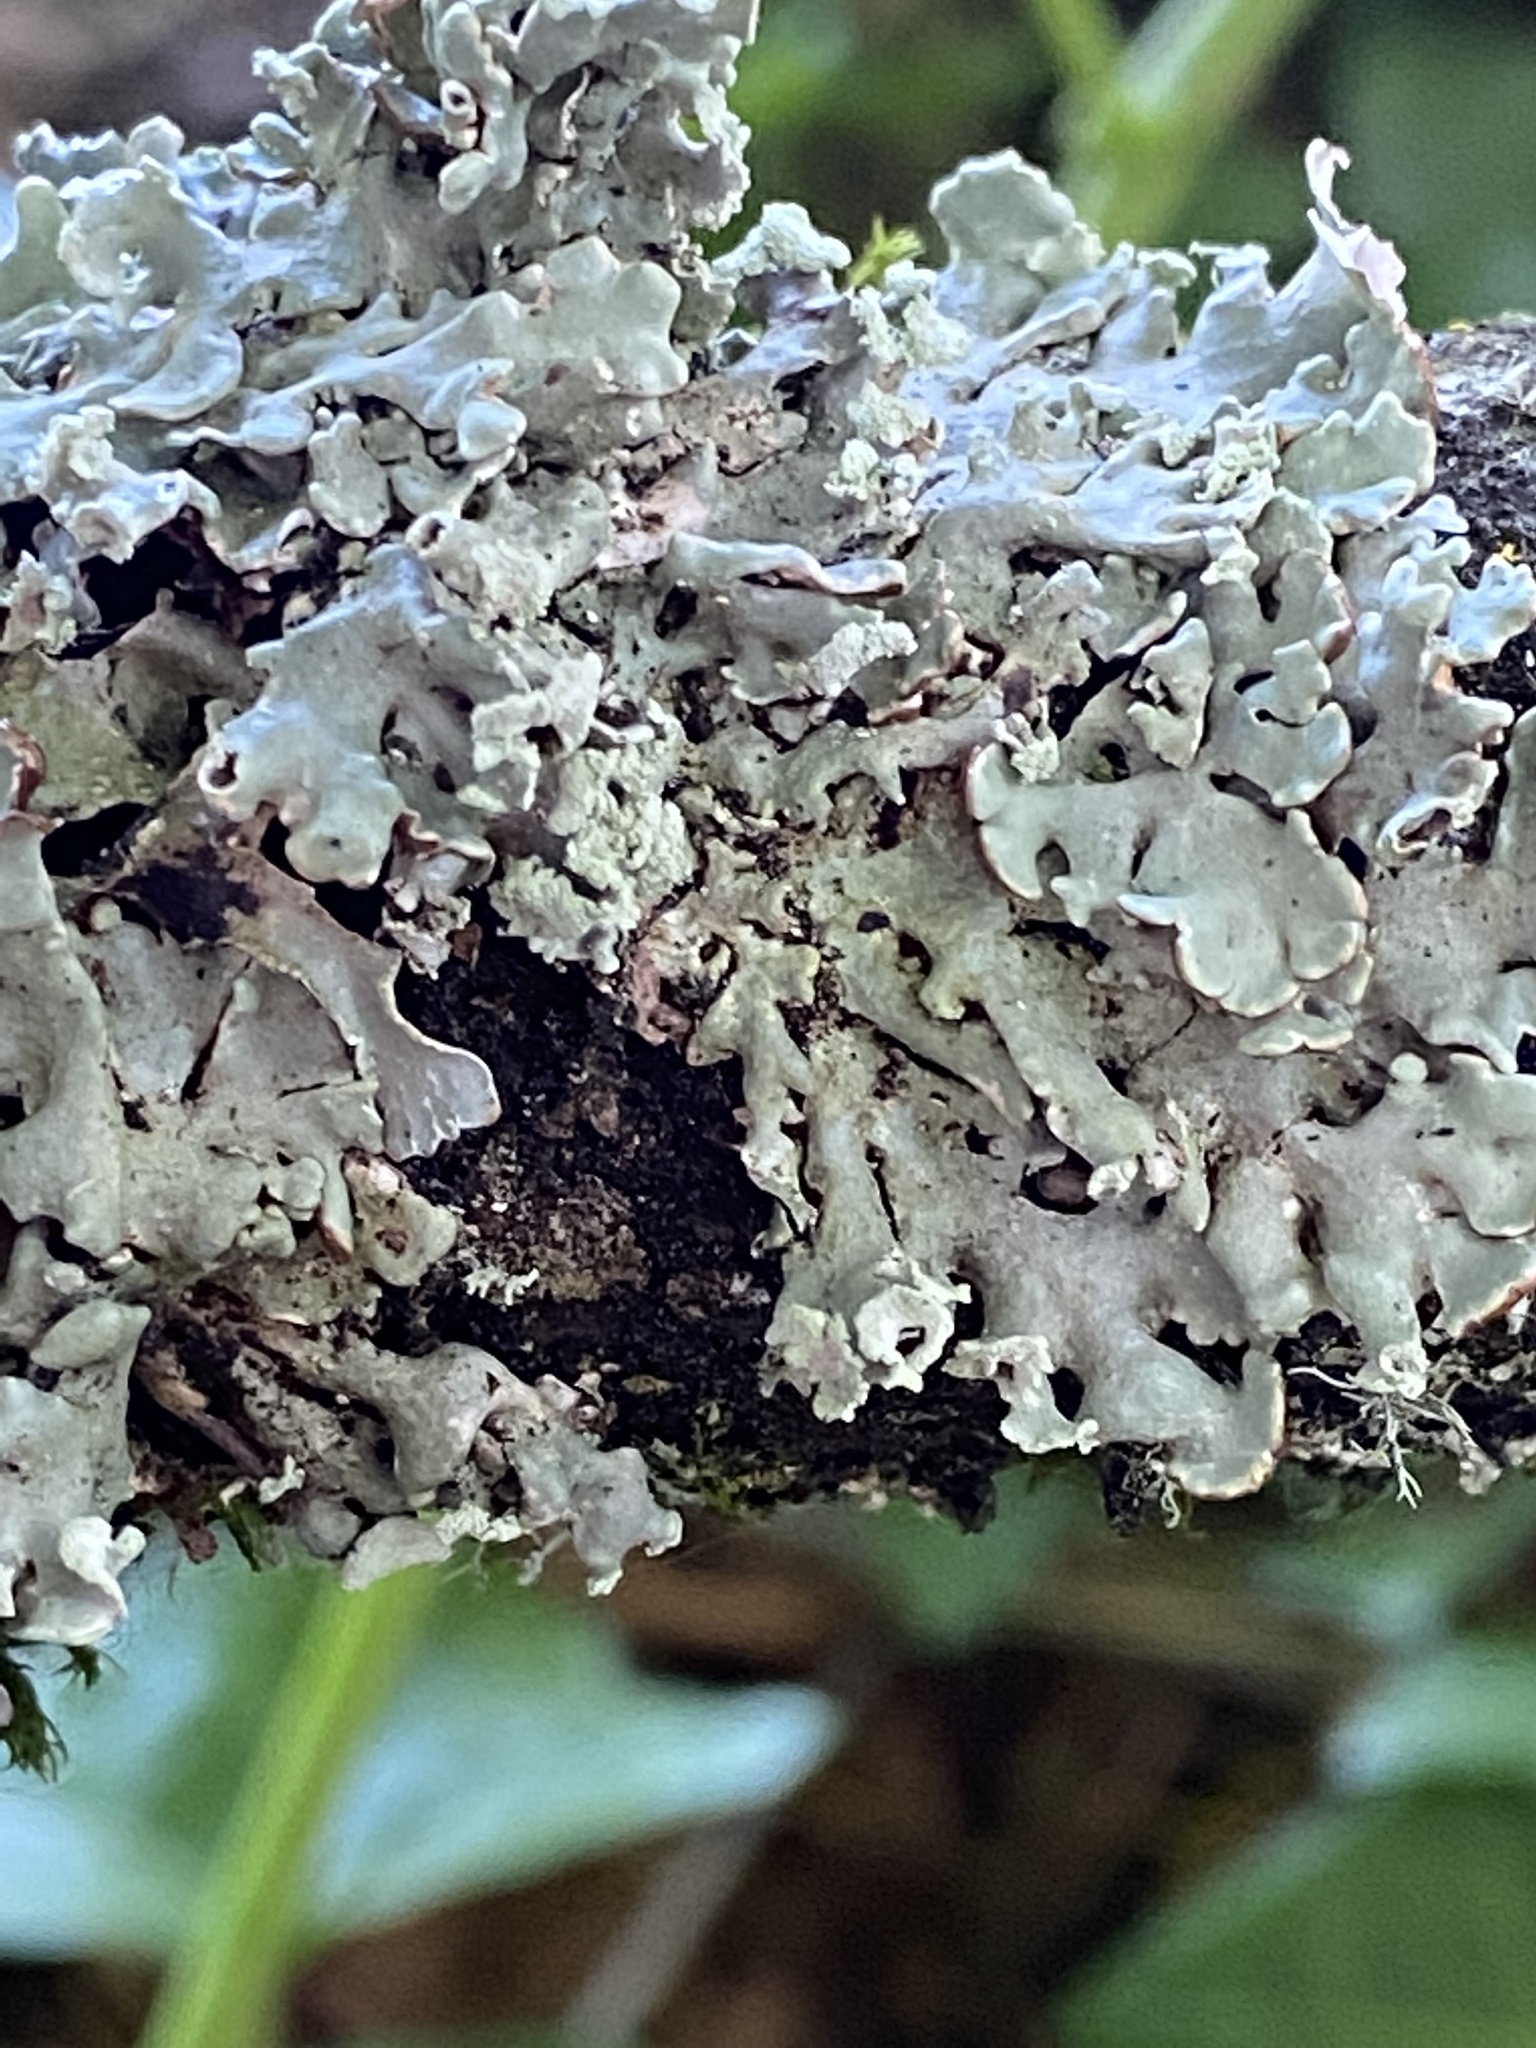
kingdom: Fungi
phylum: Ascomycota
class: Lecanoromycetes
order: Lecanorales
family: Parmeliaceae
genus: Hypogymnia
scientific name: Hypogymnia physodes
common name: Dark crottle
